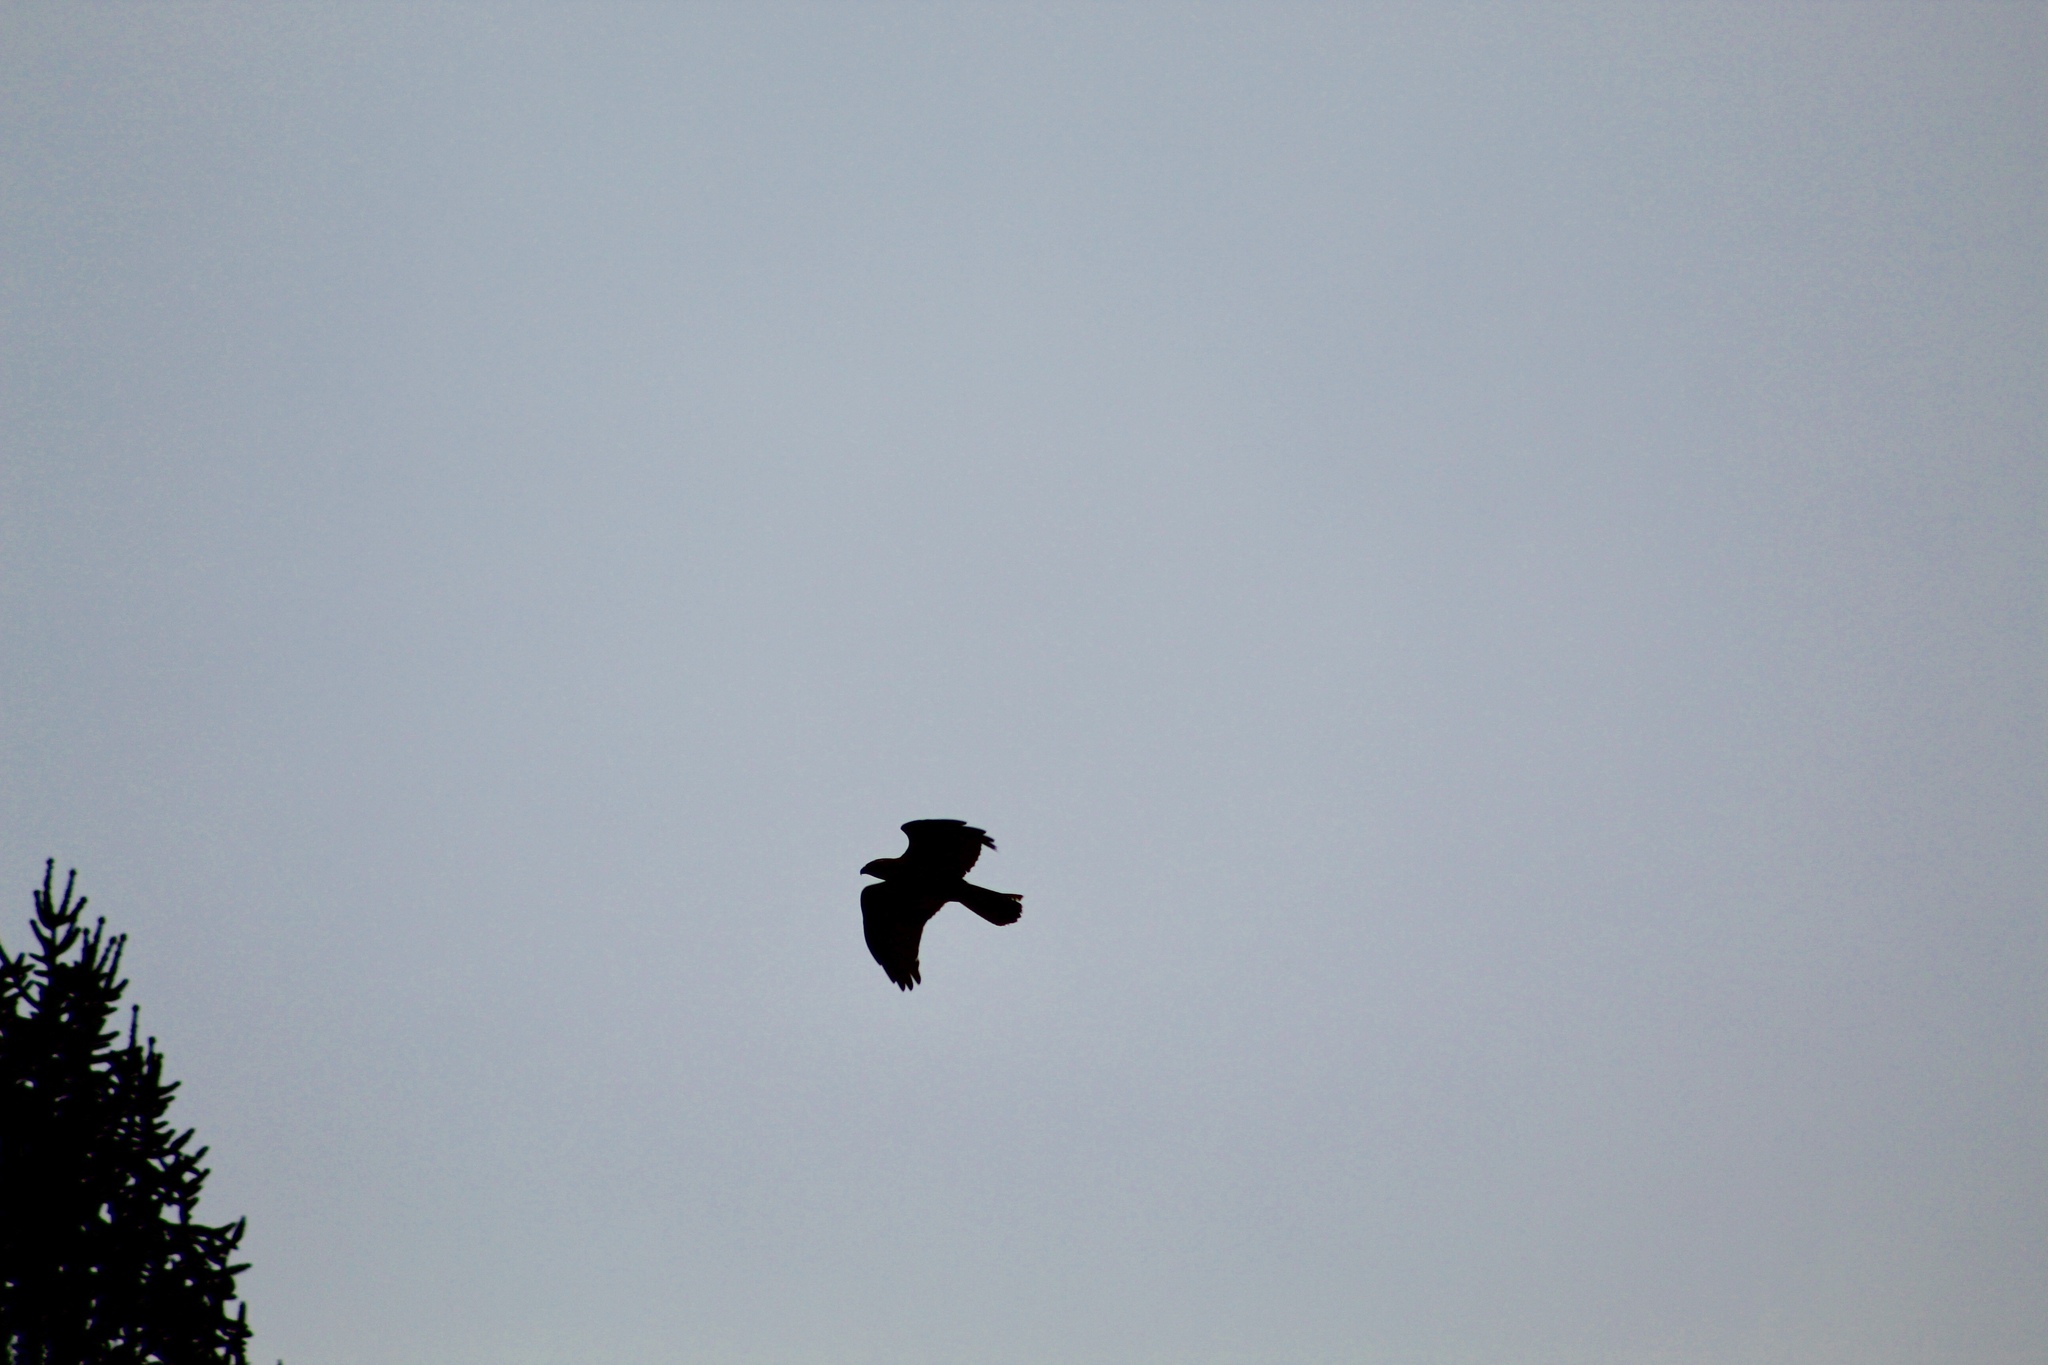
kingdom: Animalia
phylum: Chordata
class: Aves
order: Accipitriformes
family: Accipitridae
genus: Buteo
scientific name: Buteo lineatus
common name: Red-shouldered hawk
